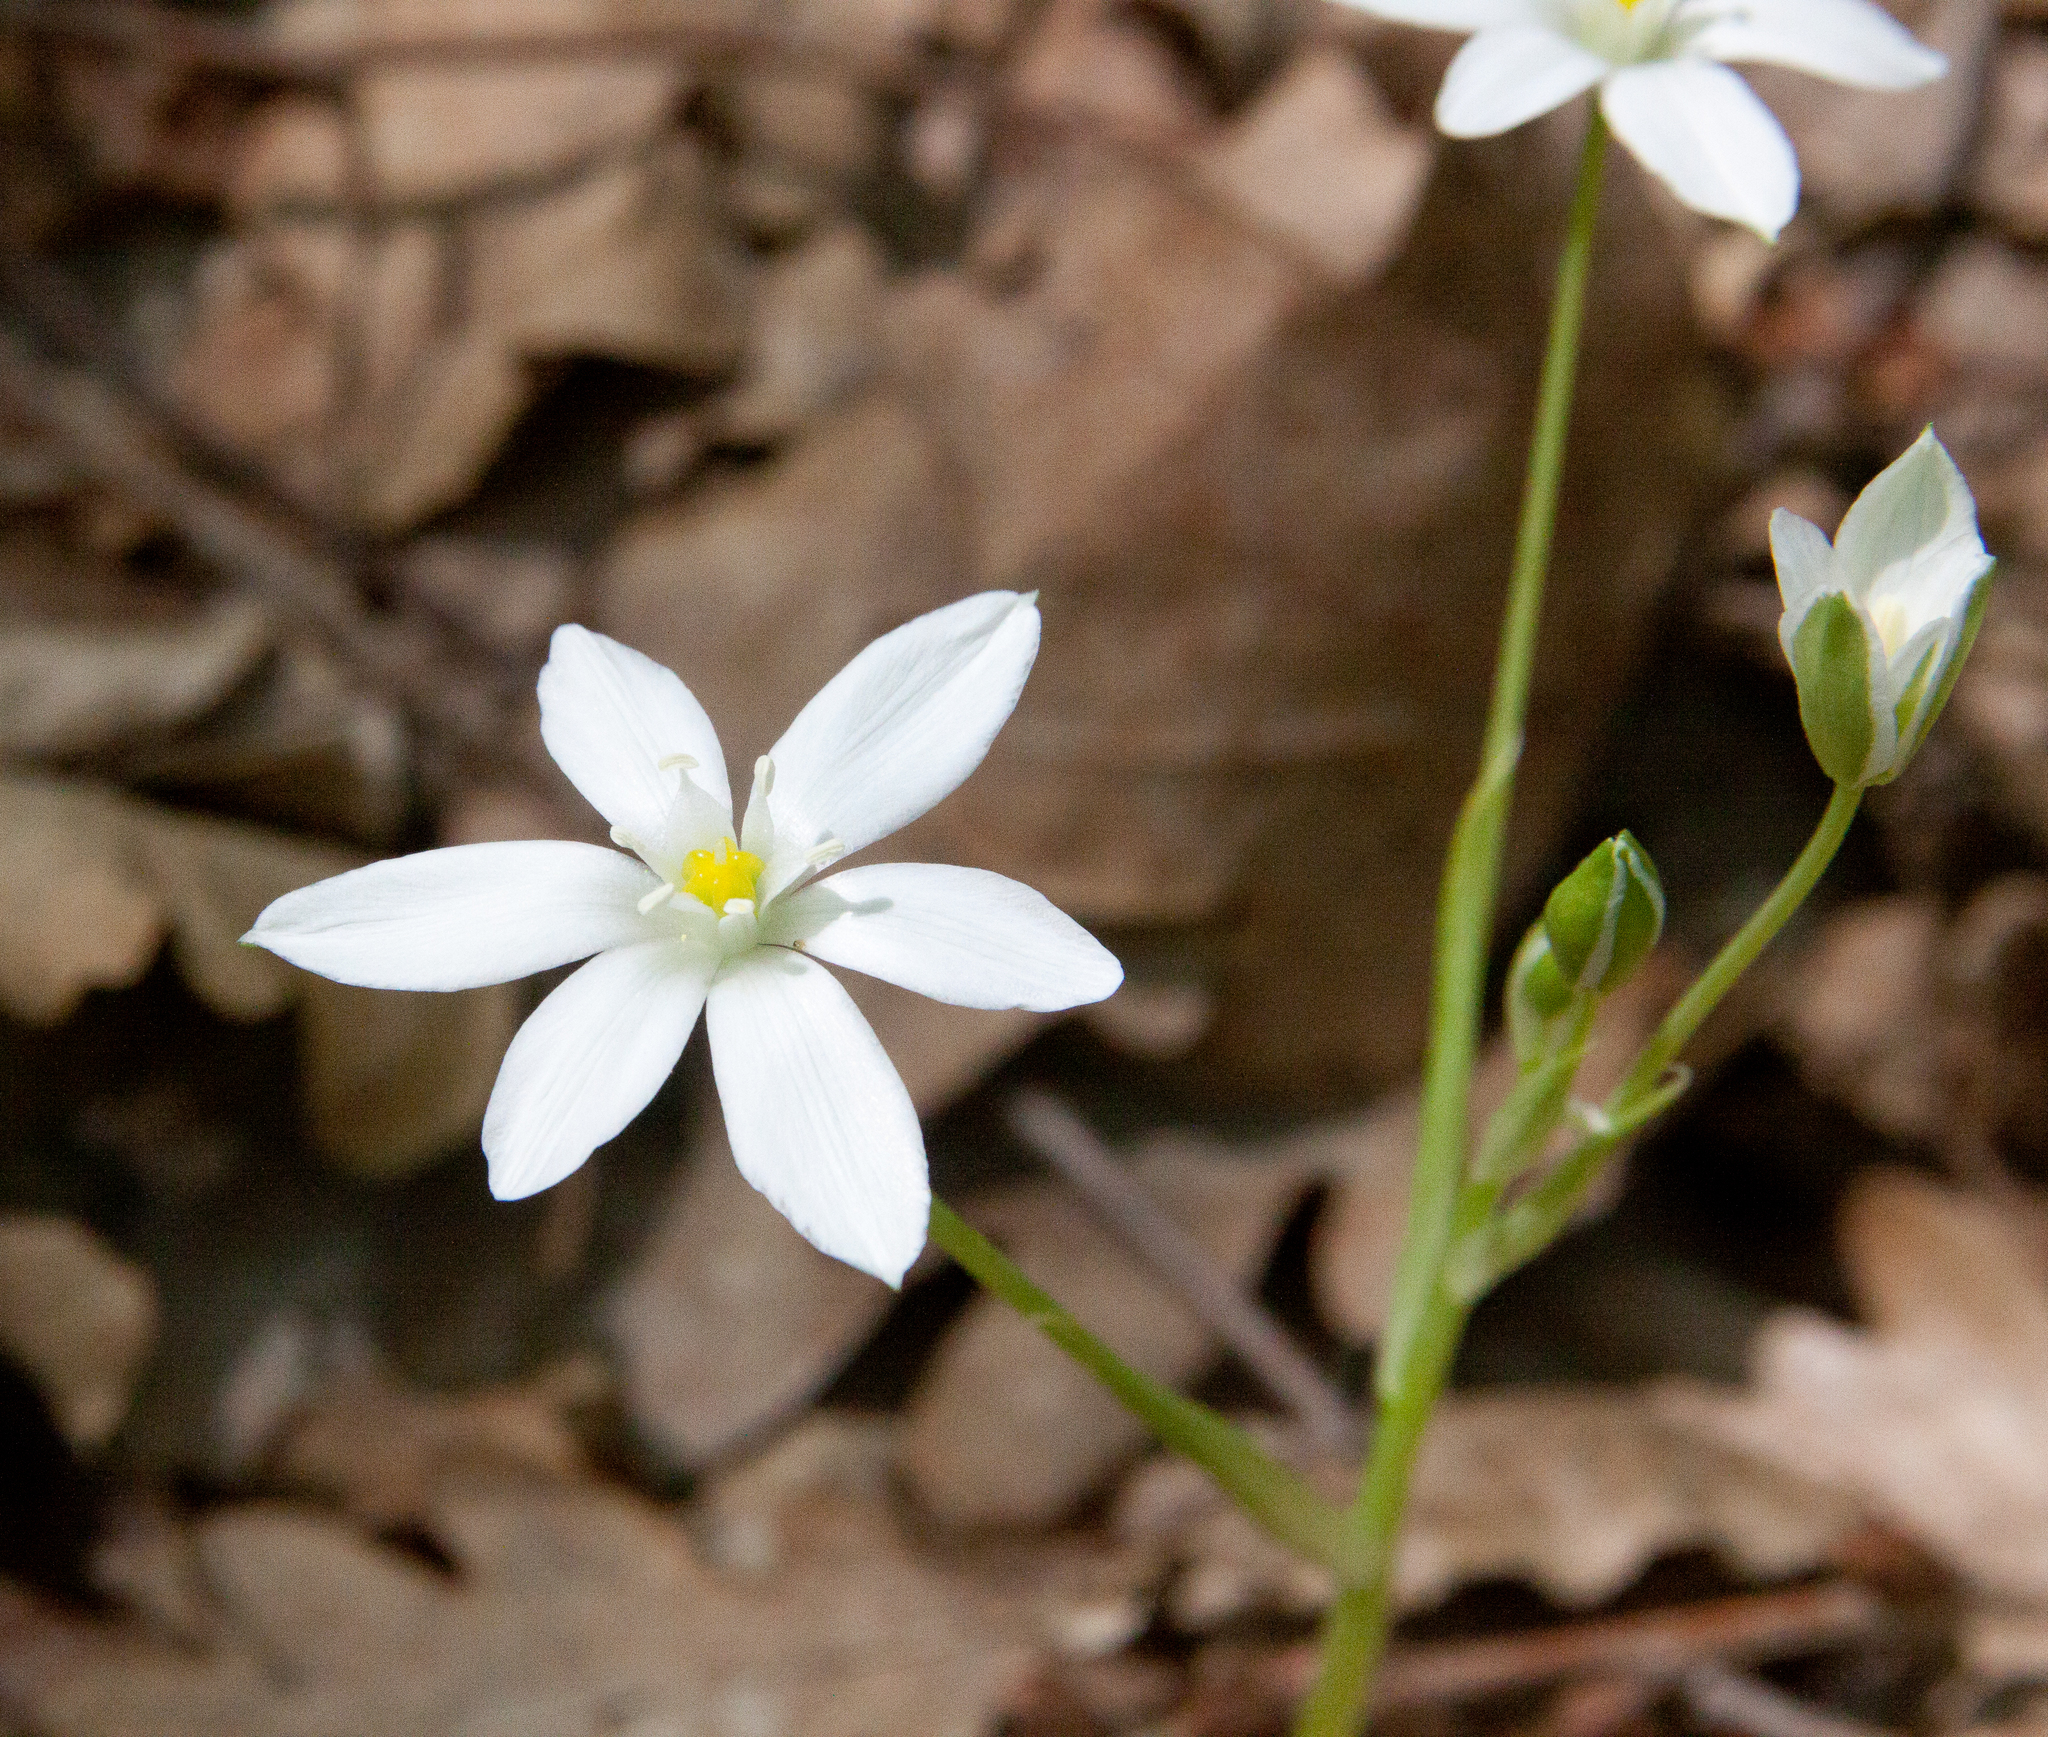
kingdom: Plantae
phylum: Tracheophyta
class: Liliopsida
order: Asparagales
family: Asparagaceae
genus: Ornithogalum
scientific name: Ornithogalum woronowii
